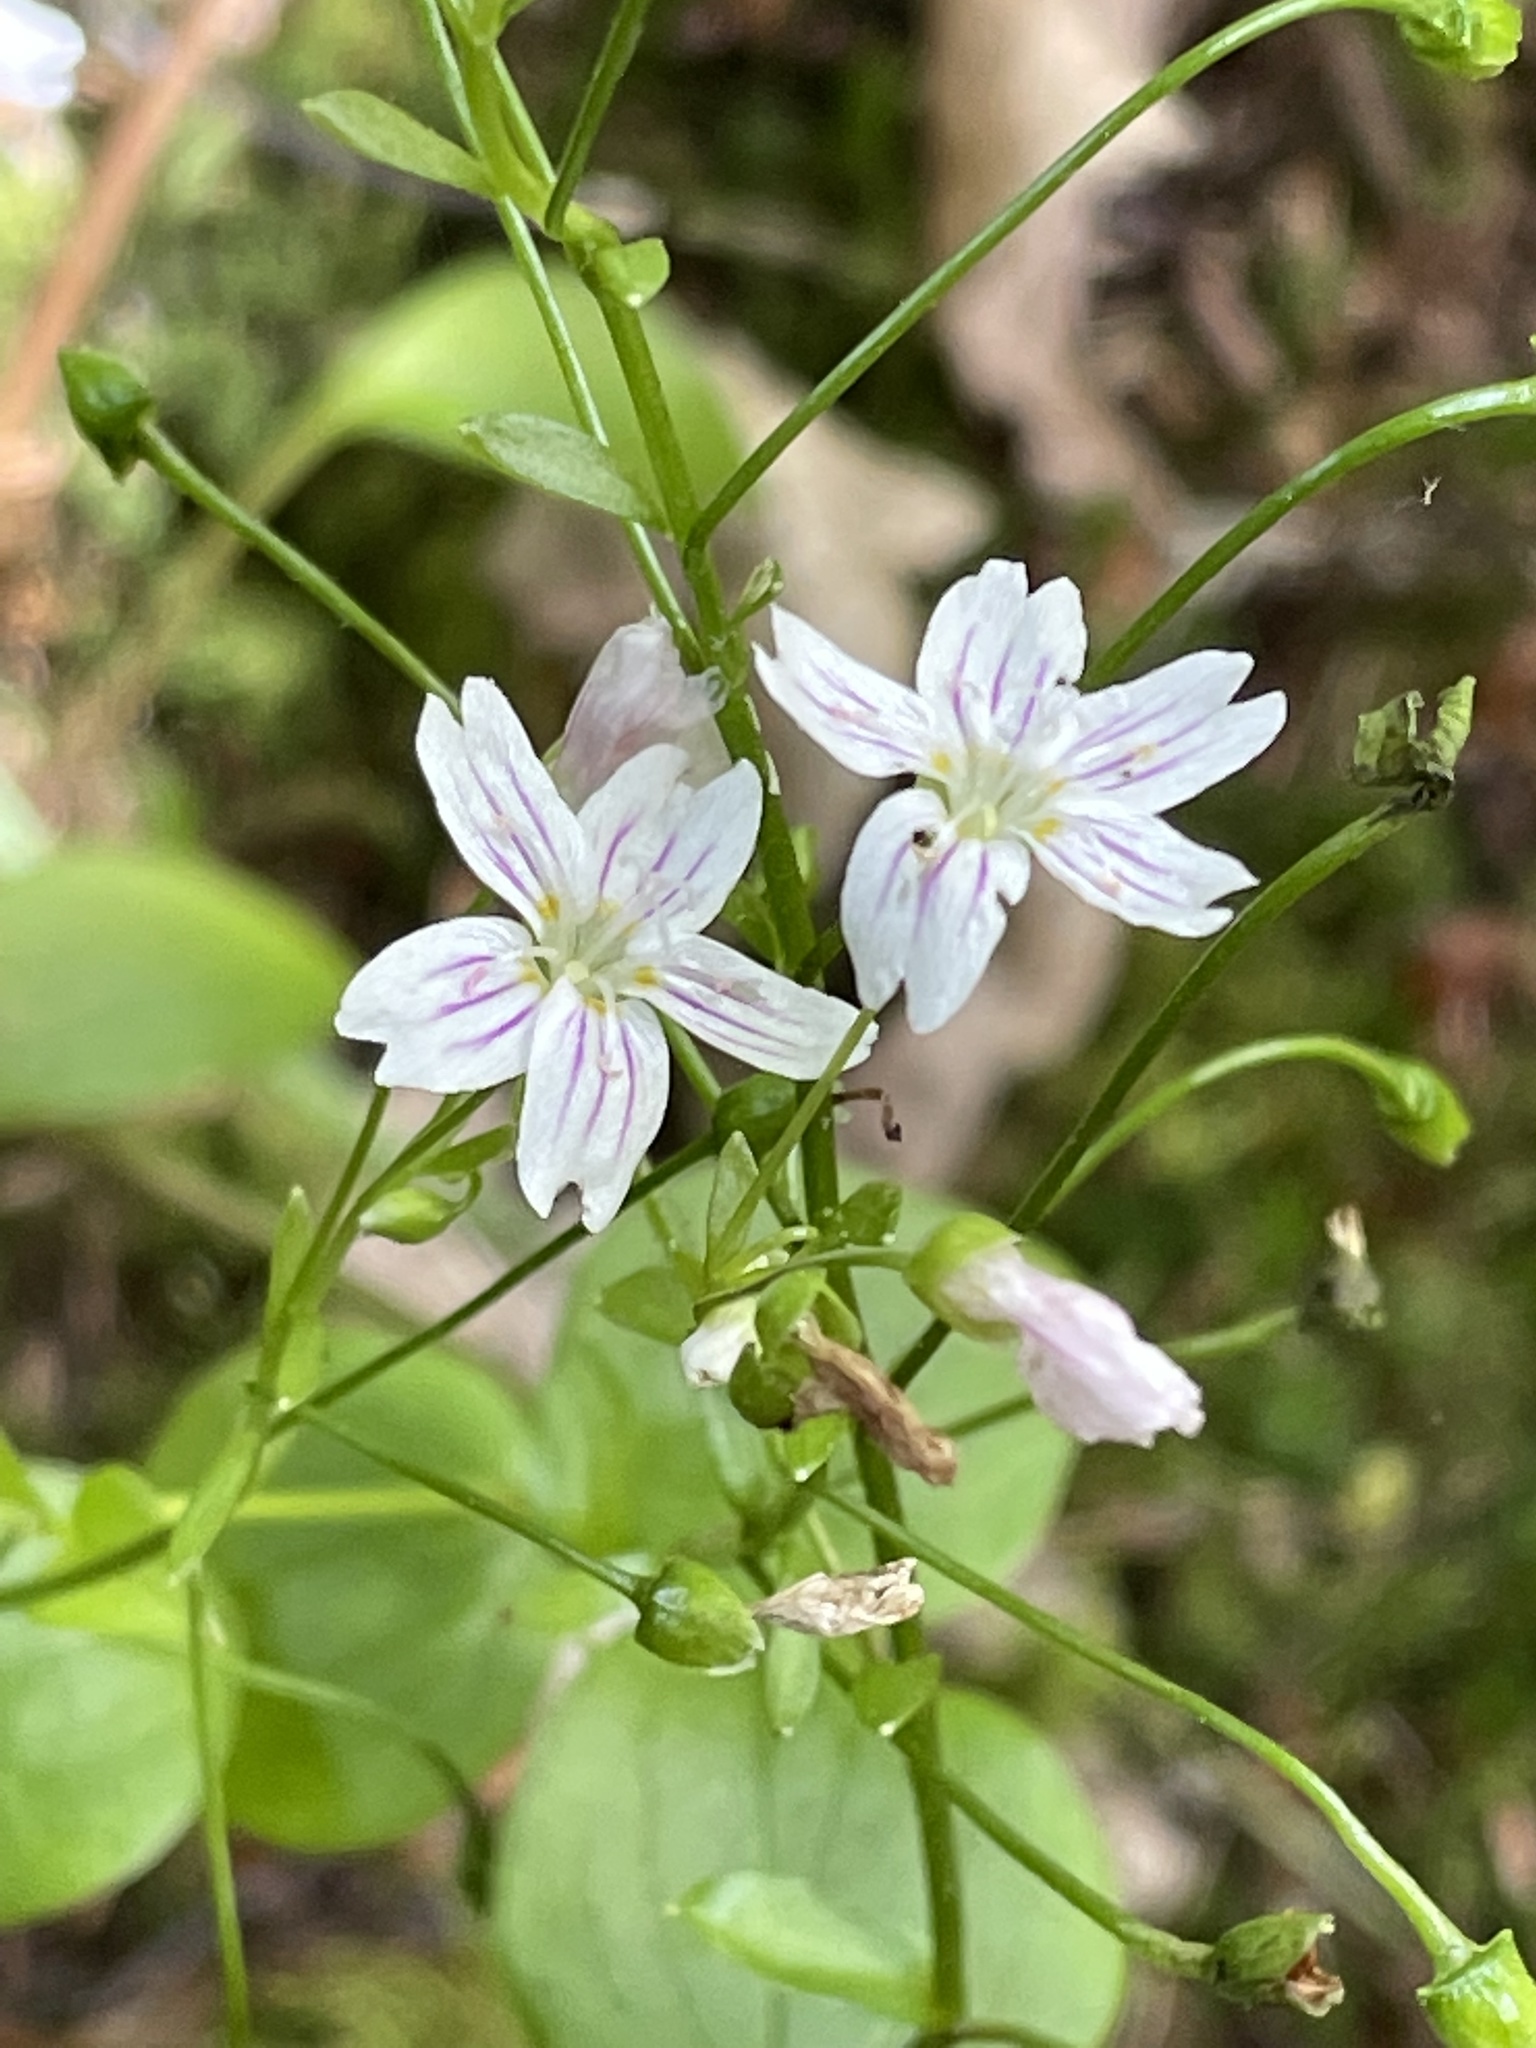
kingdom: Plantae
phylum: Tracheophyta
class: Magnoliopsida
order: Caryophyllales
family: Montiaceae
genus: Claytonia
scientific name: Claytonia sibirica
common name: Pink purslane
